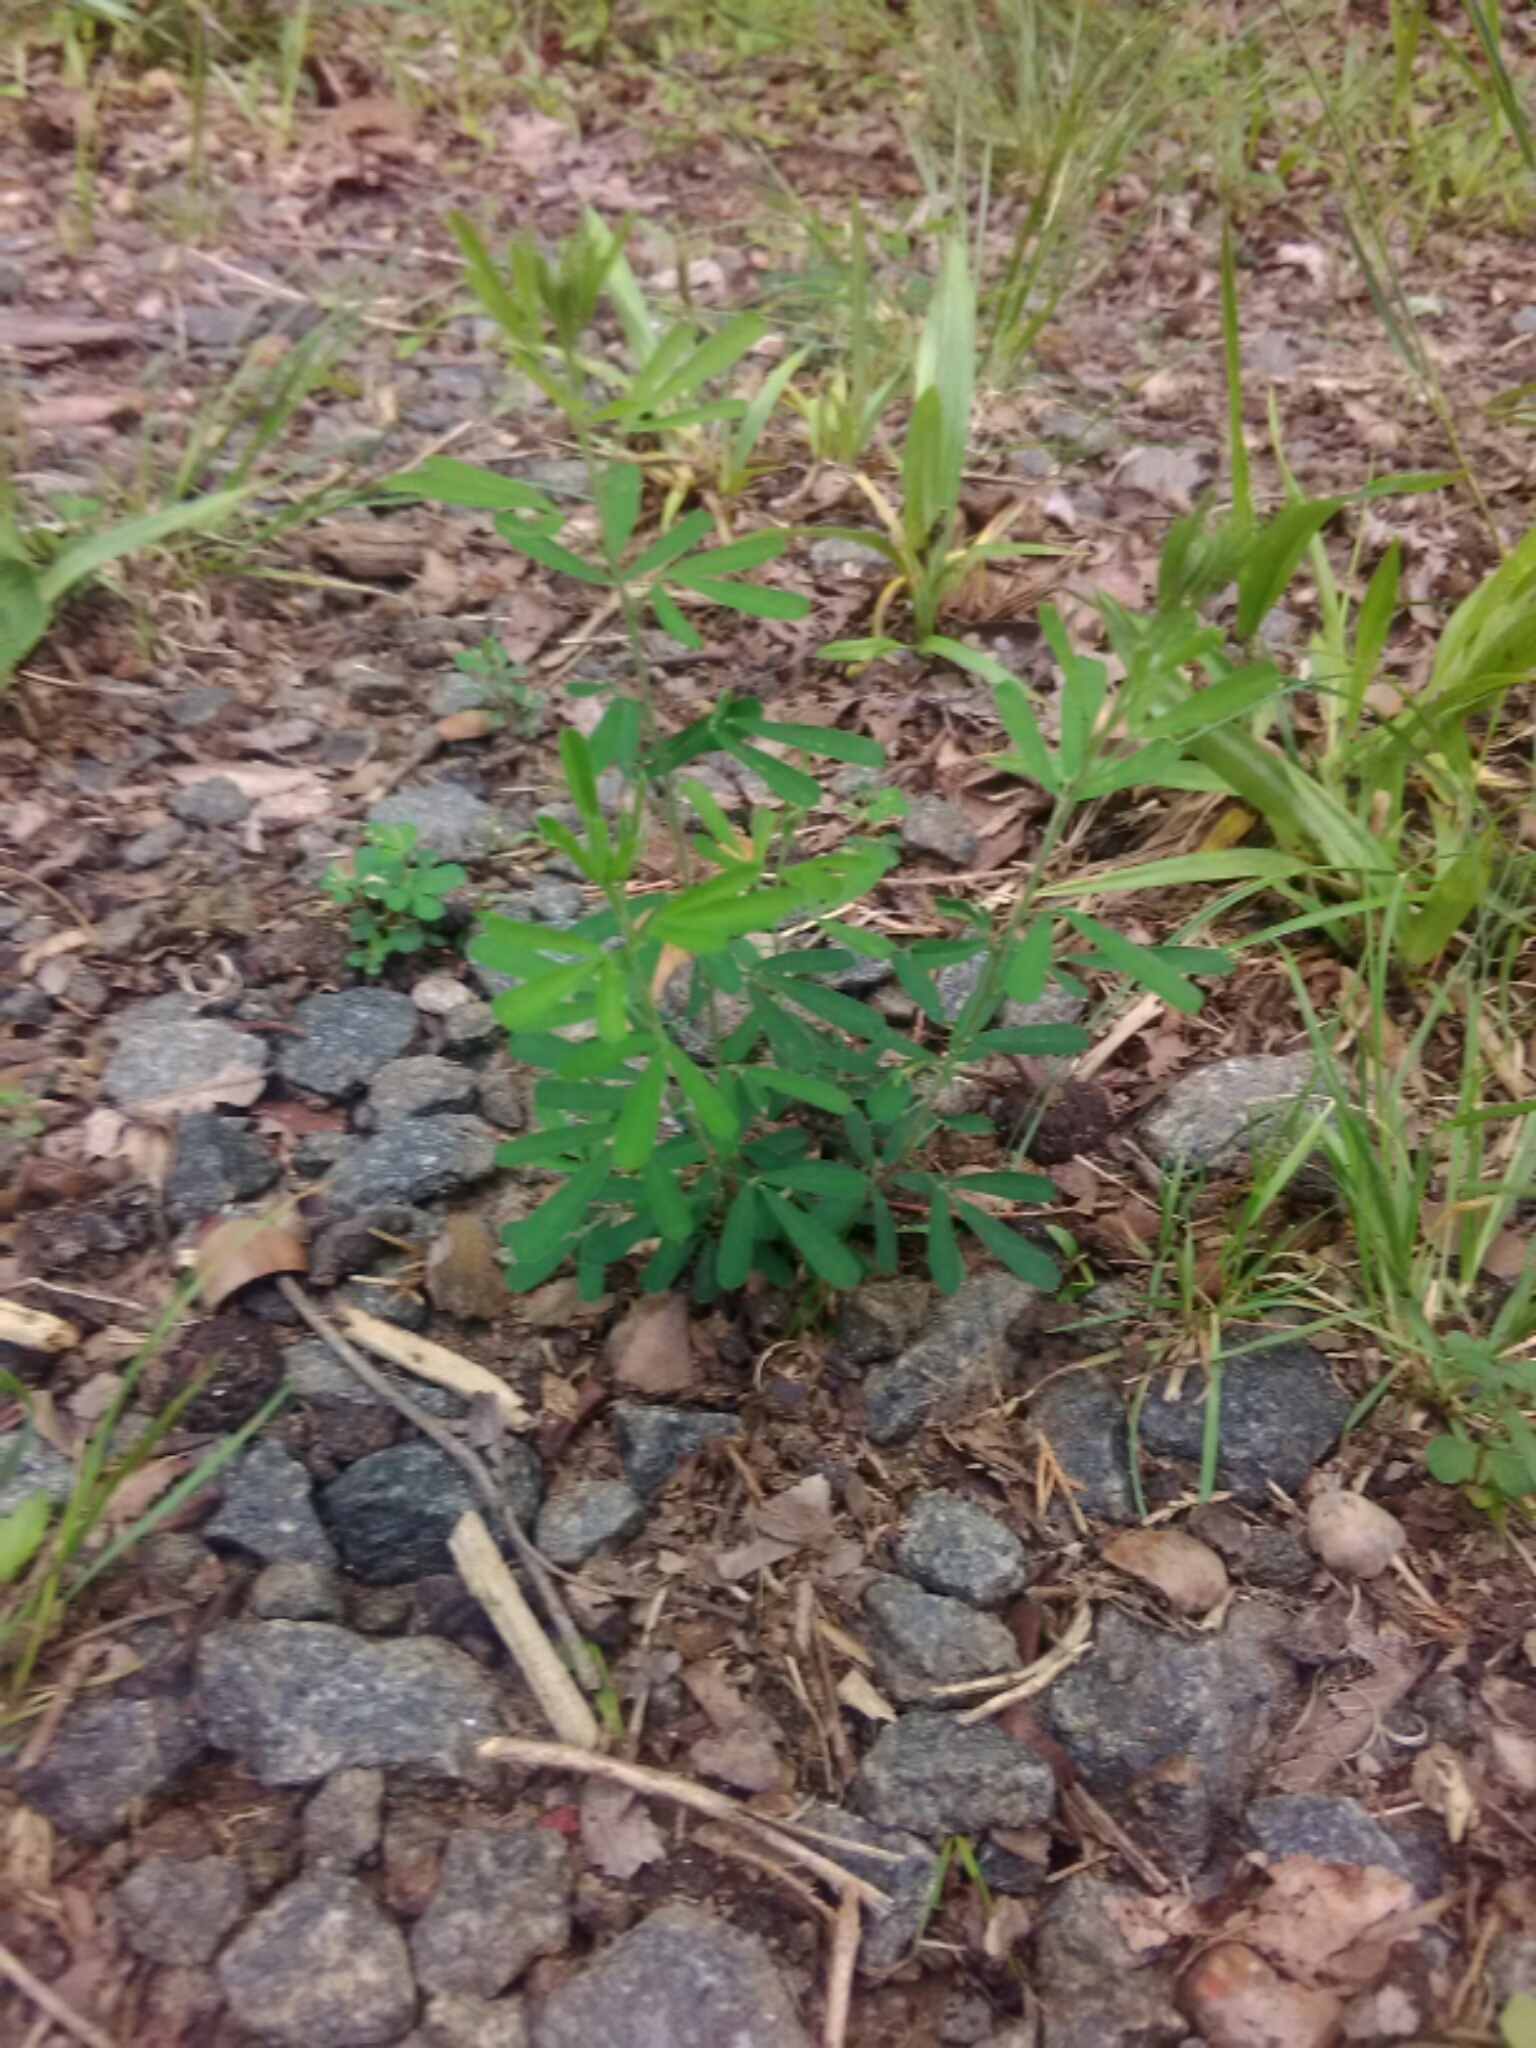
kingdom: Plantae
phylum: Tracheophyta
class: Magnoliopsida
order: Fabales
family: Fabaceae
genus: Lespedeza
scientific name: Lespedeza cuneata
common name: Chinese bush-clover
